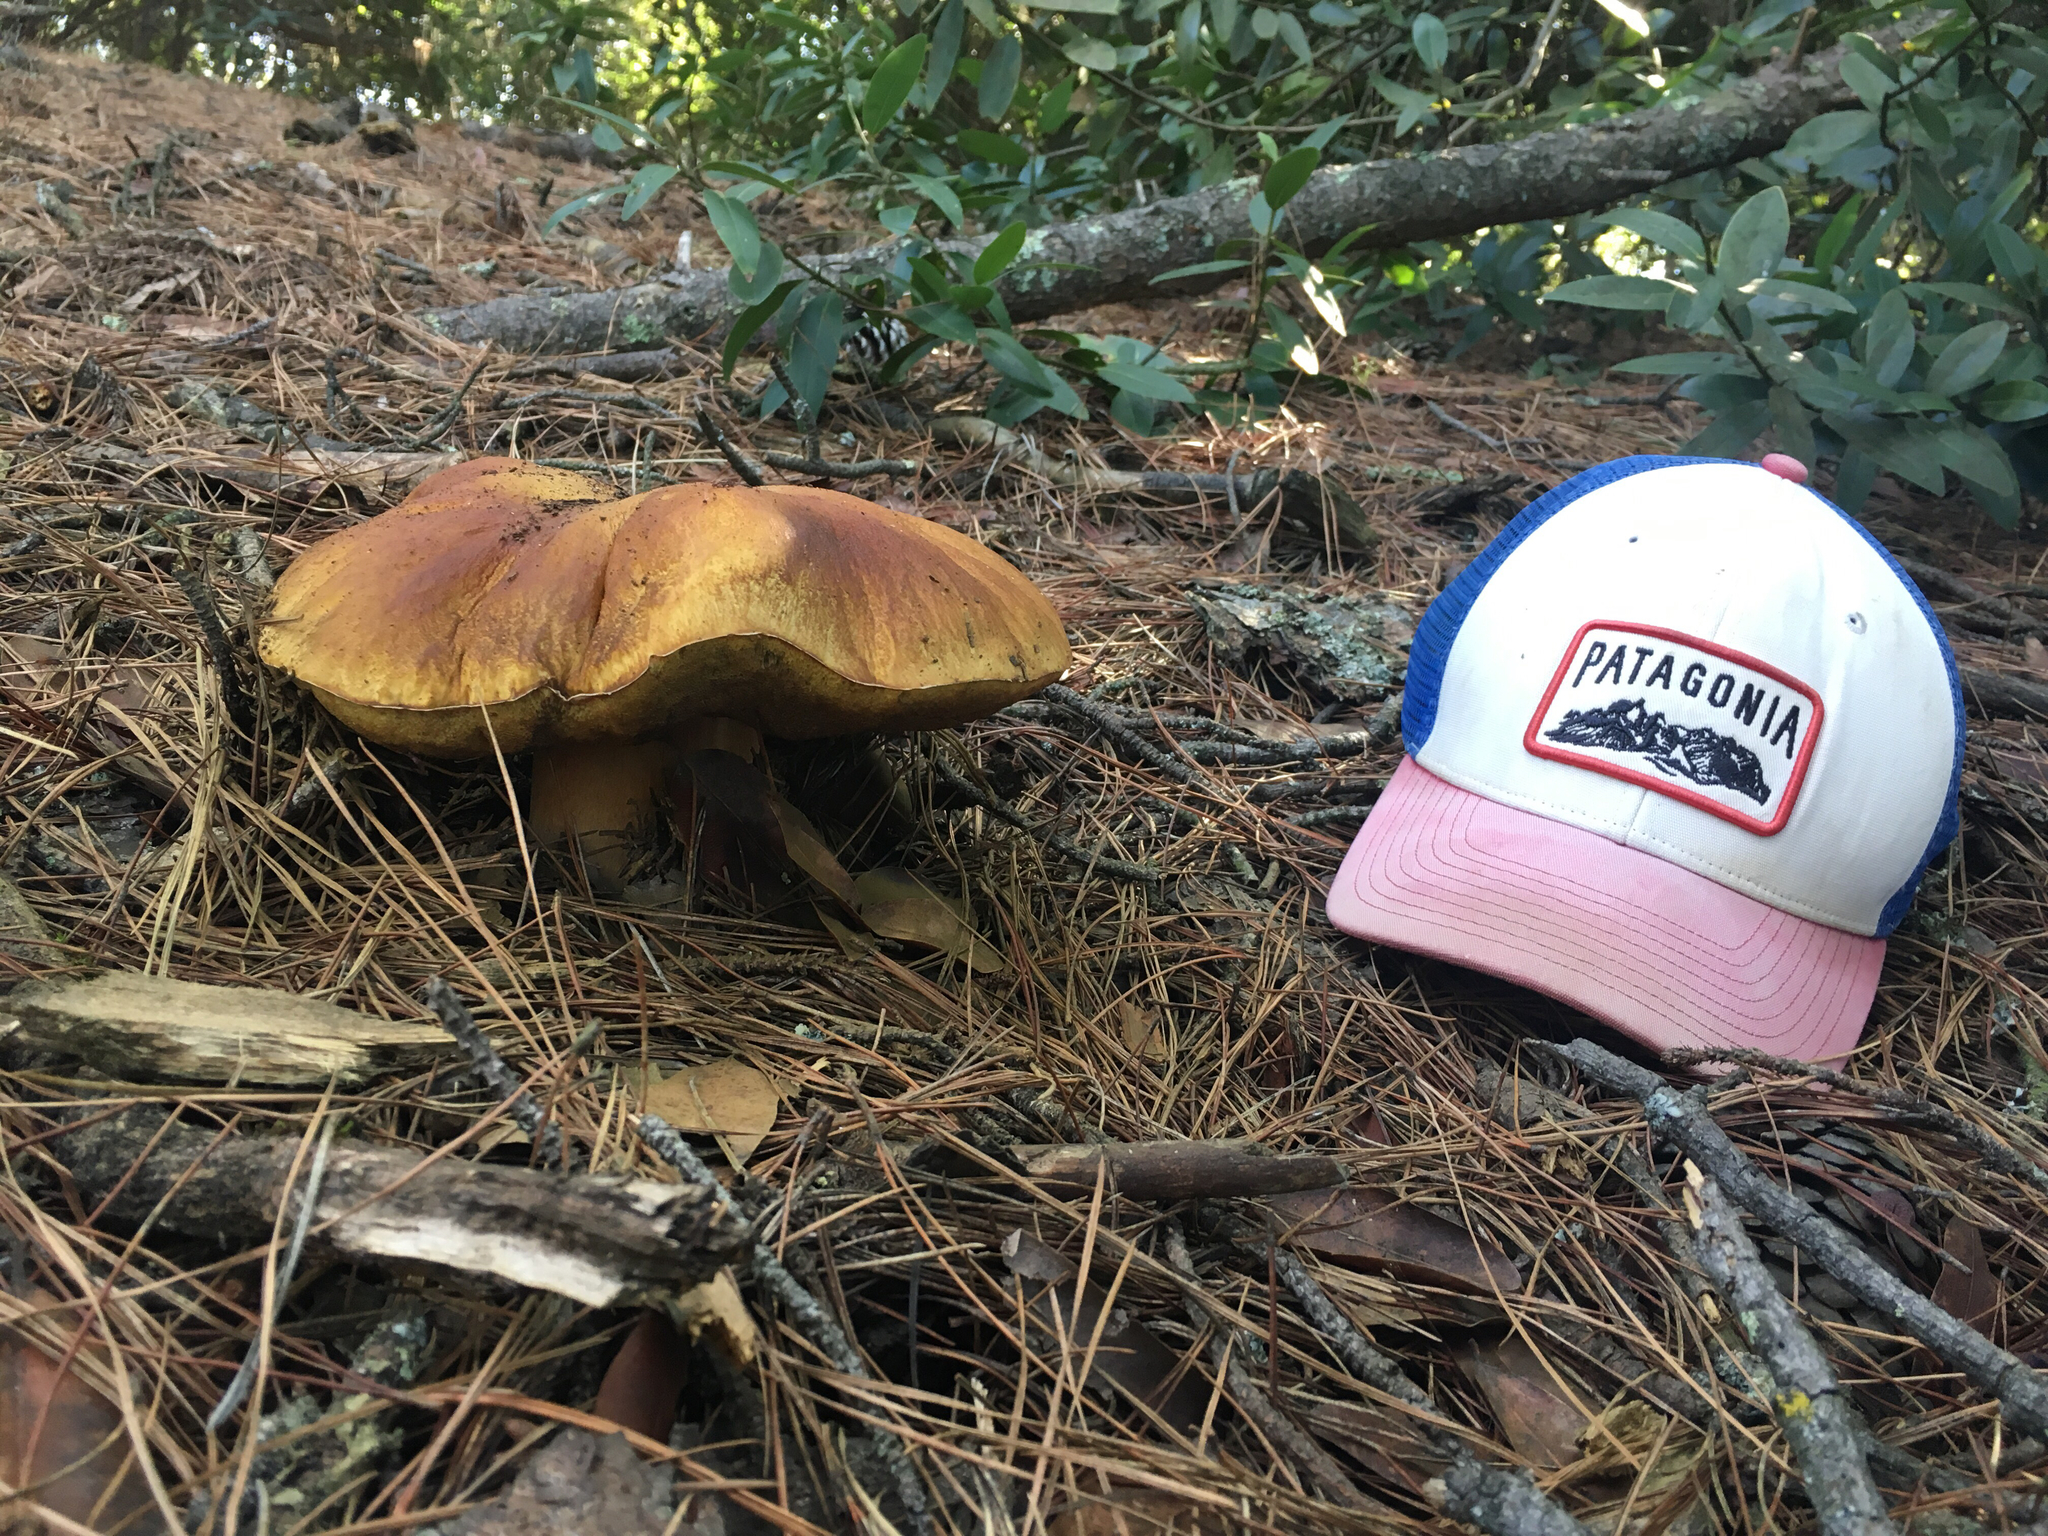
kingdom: Fungi
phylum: Basidiomycota
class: Agaricomycetes
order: Boletales
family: Boletaceae
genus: Boletus
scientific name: Boletus edulis
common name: Cep
